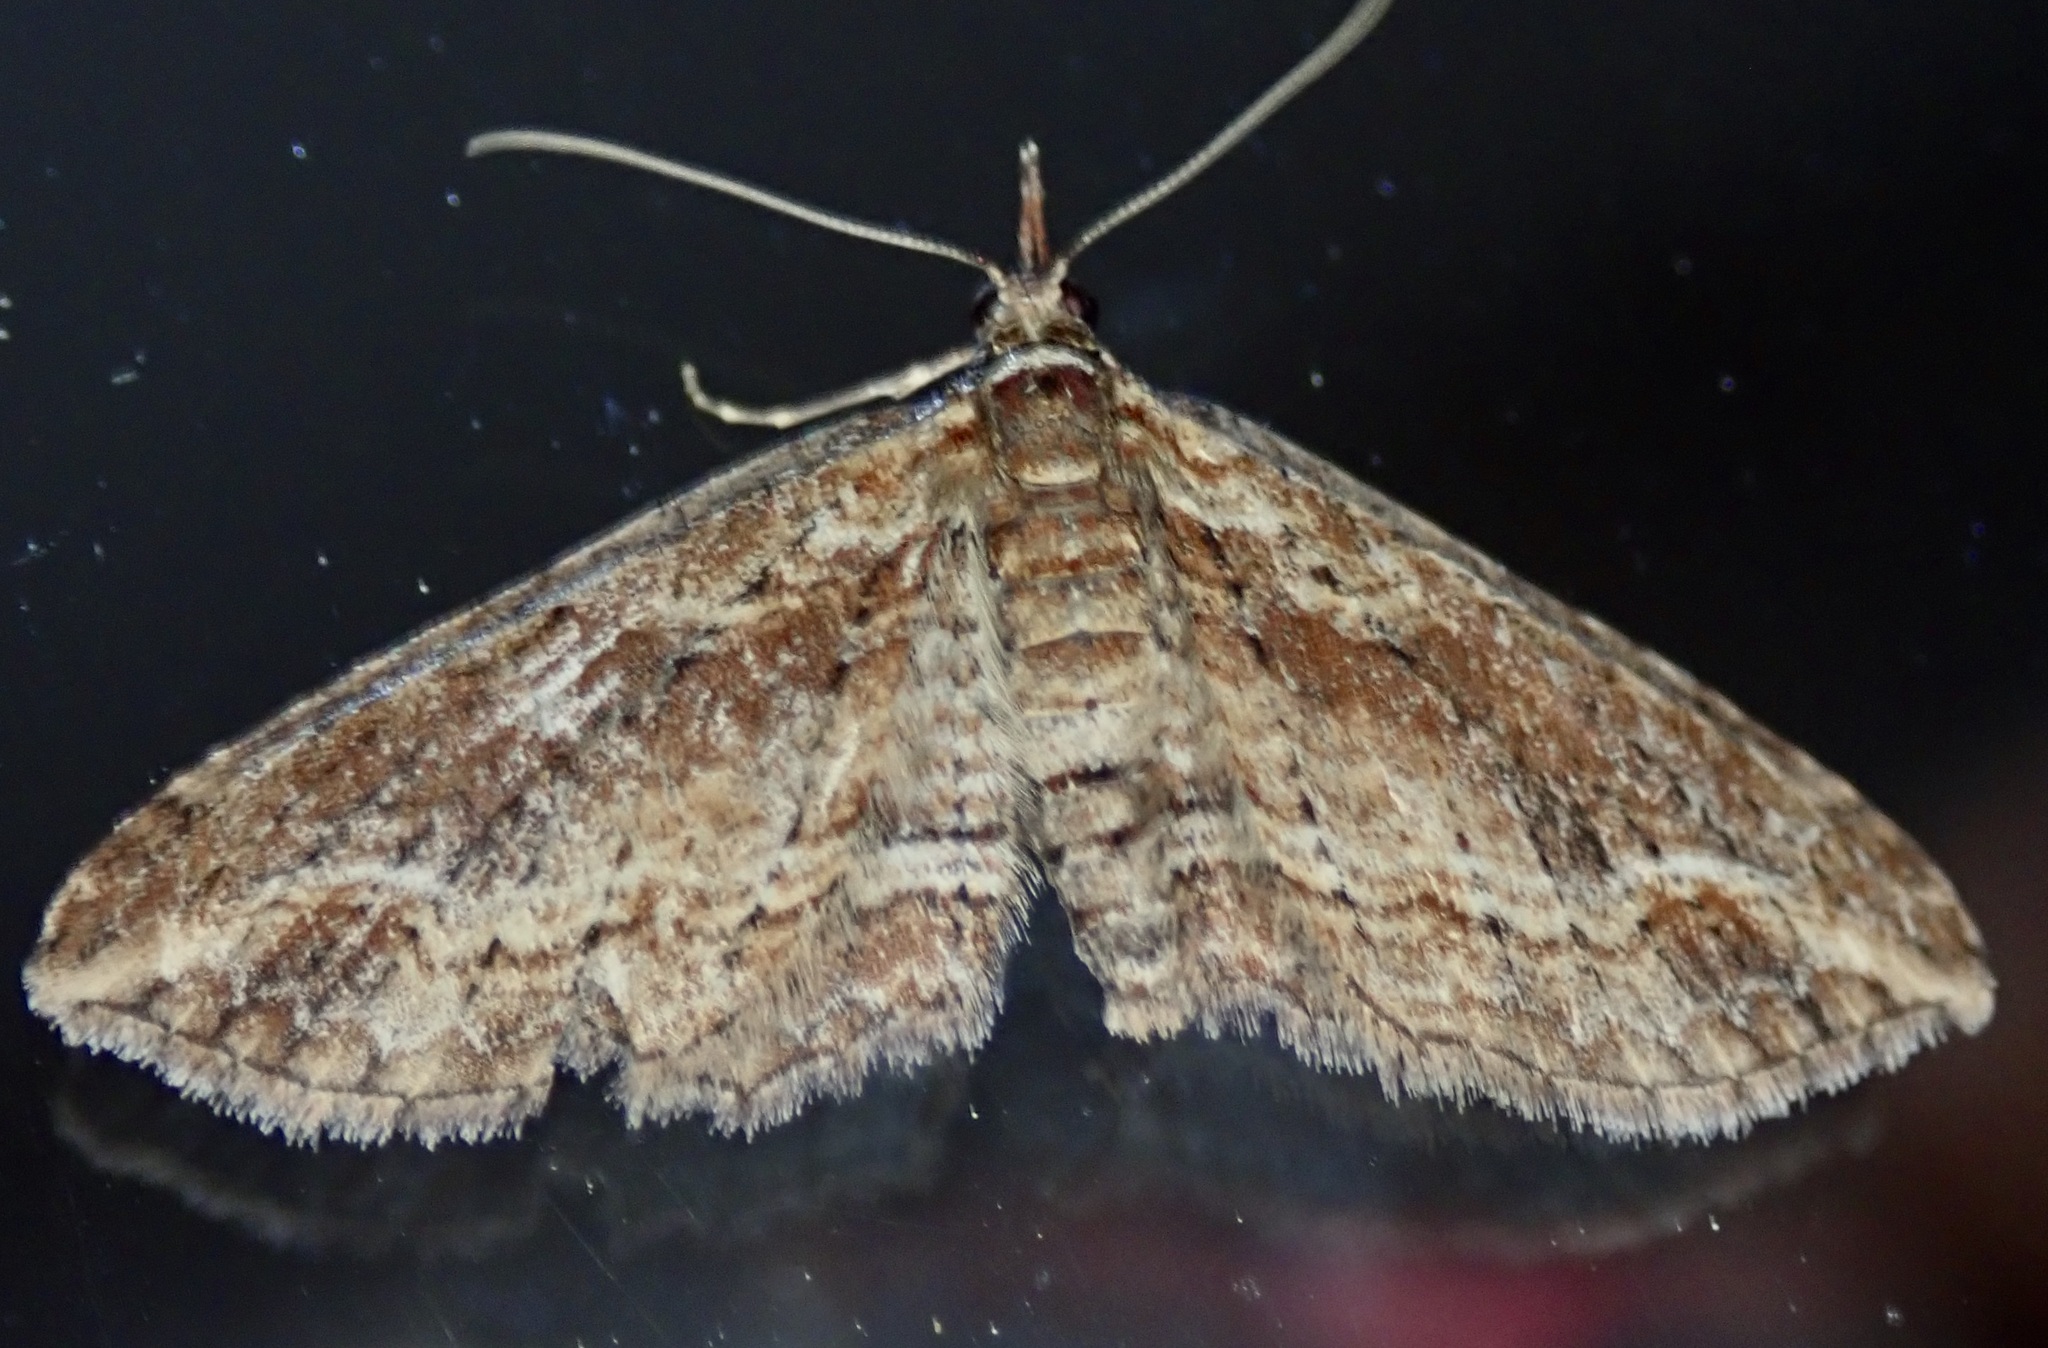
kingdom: Animalia
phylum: Arthropoda
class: Insecta
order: Lepidoptera
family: Geometridae
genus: Chloroclystis
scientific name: Chloroclystis filata
